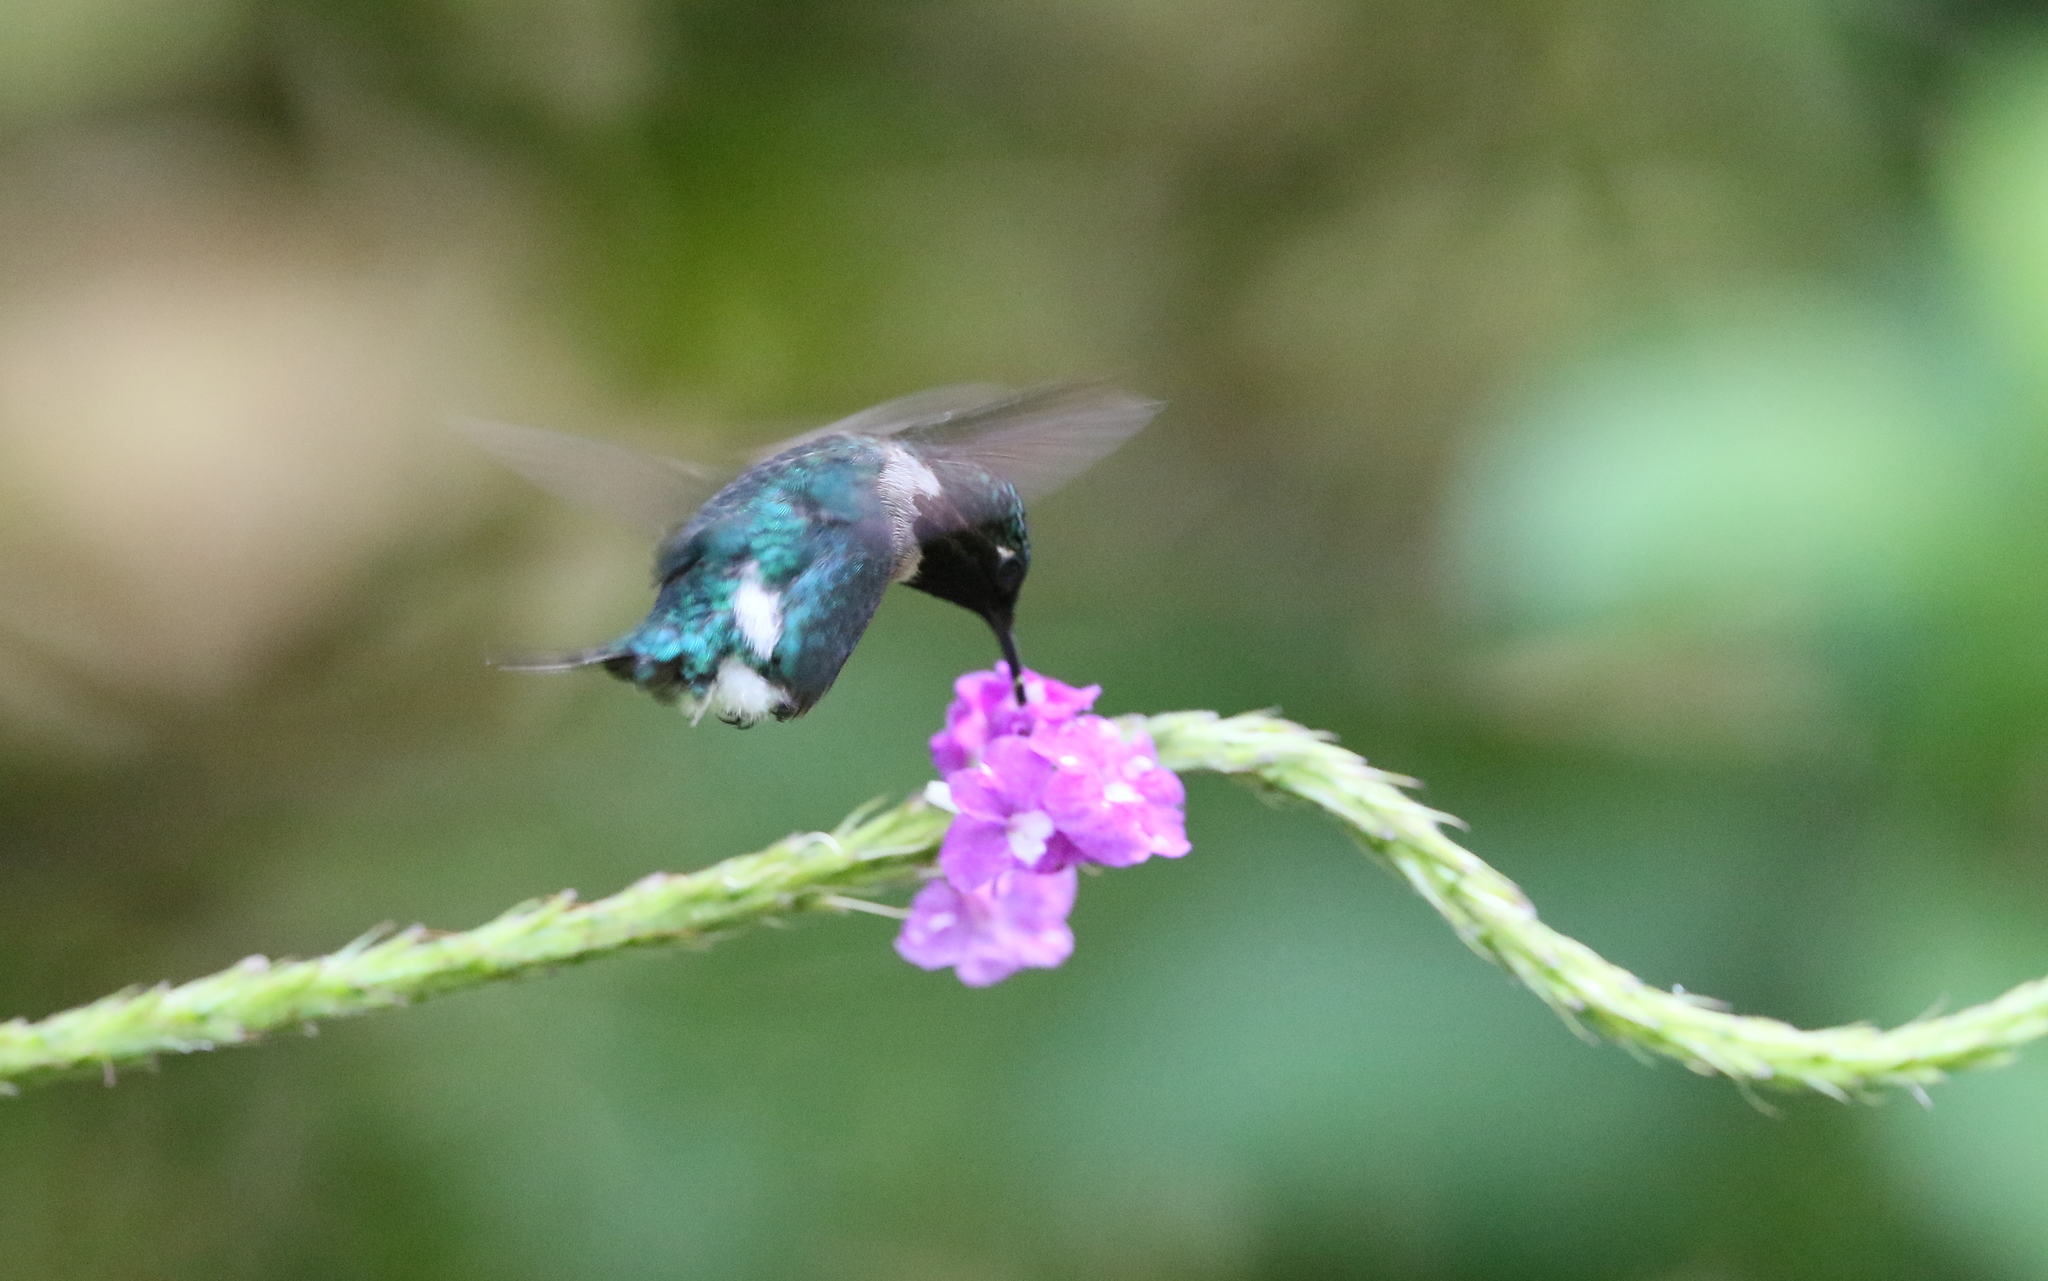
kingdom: Animalia
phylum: Chordata
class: Aves
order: Apodiformes
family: Trochilidae
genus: Chaetocercus
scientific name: Chaetocercus heliodor
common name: Gorgeted woodstar
